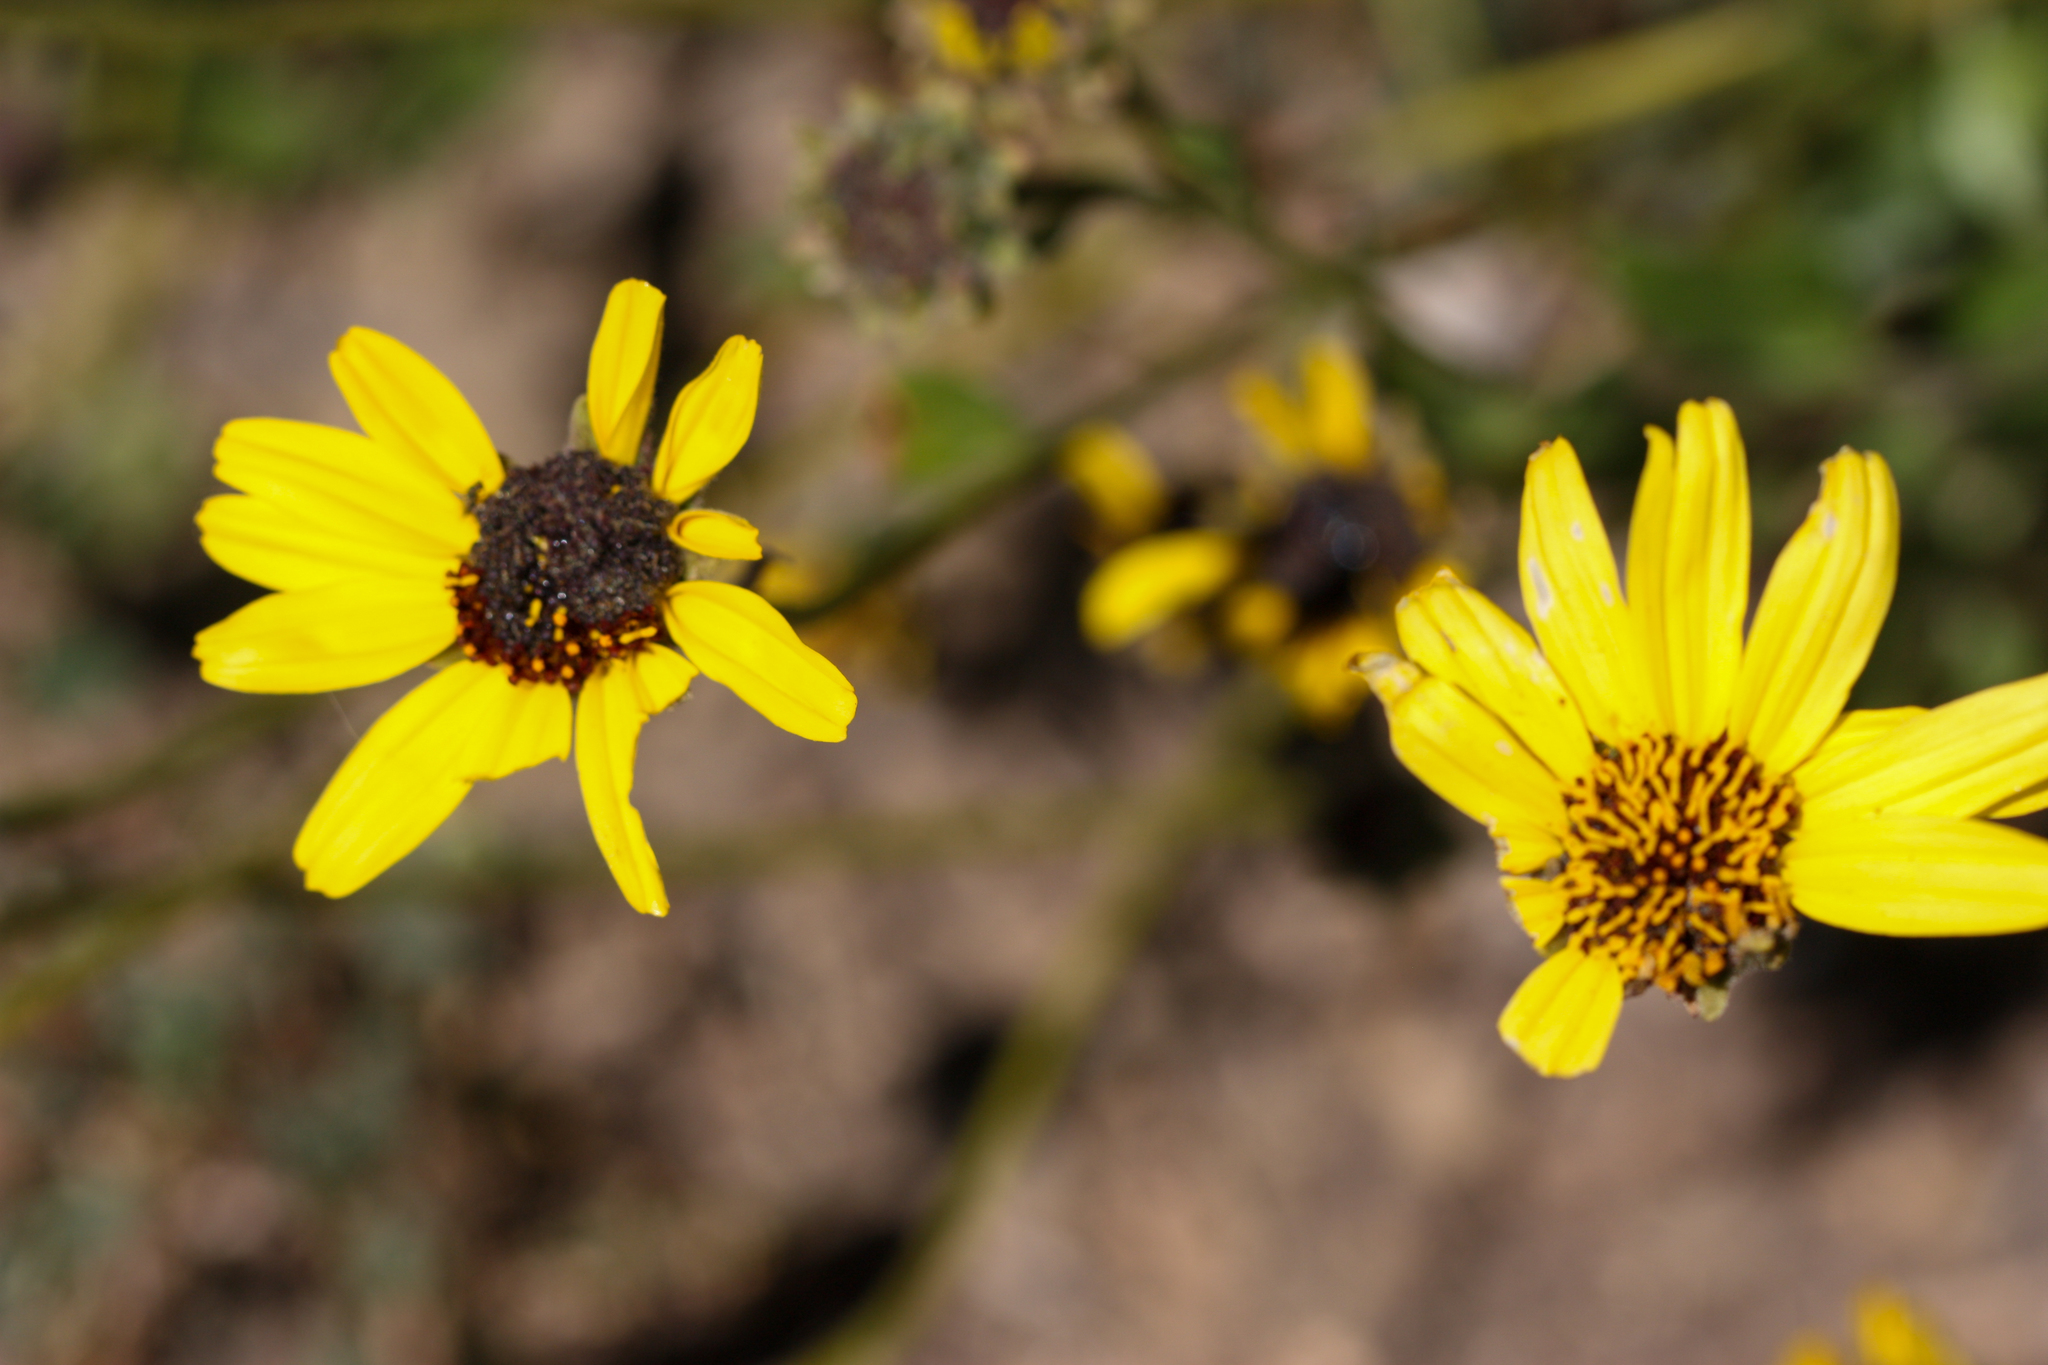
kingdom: Plantae
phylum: Tracheophyta
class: Magnoliopsida
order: Asterales
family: Asteraceae
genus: Encelia
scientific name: Encelia californica
